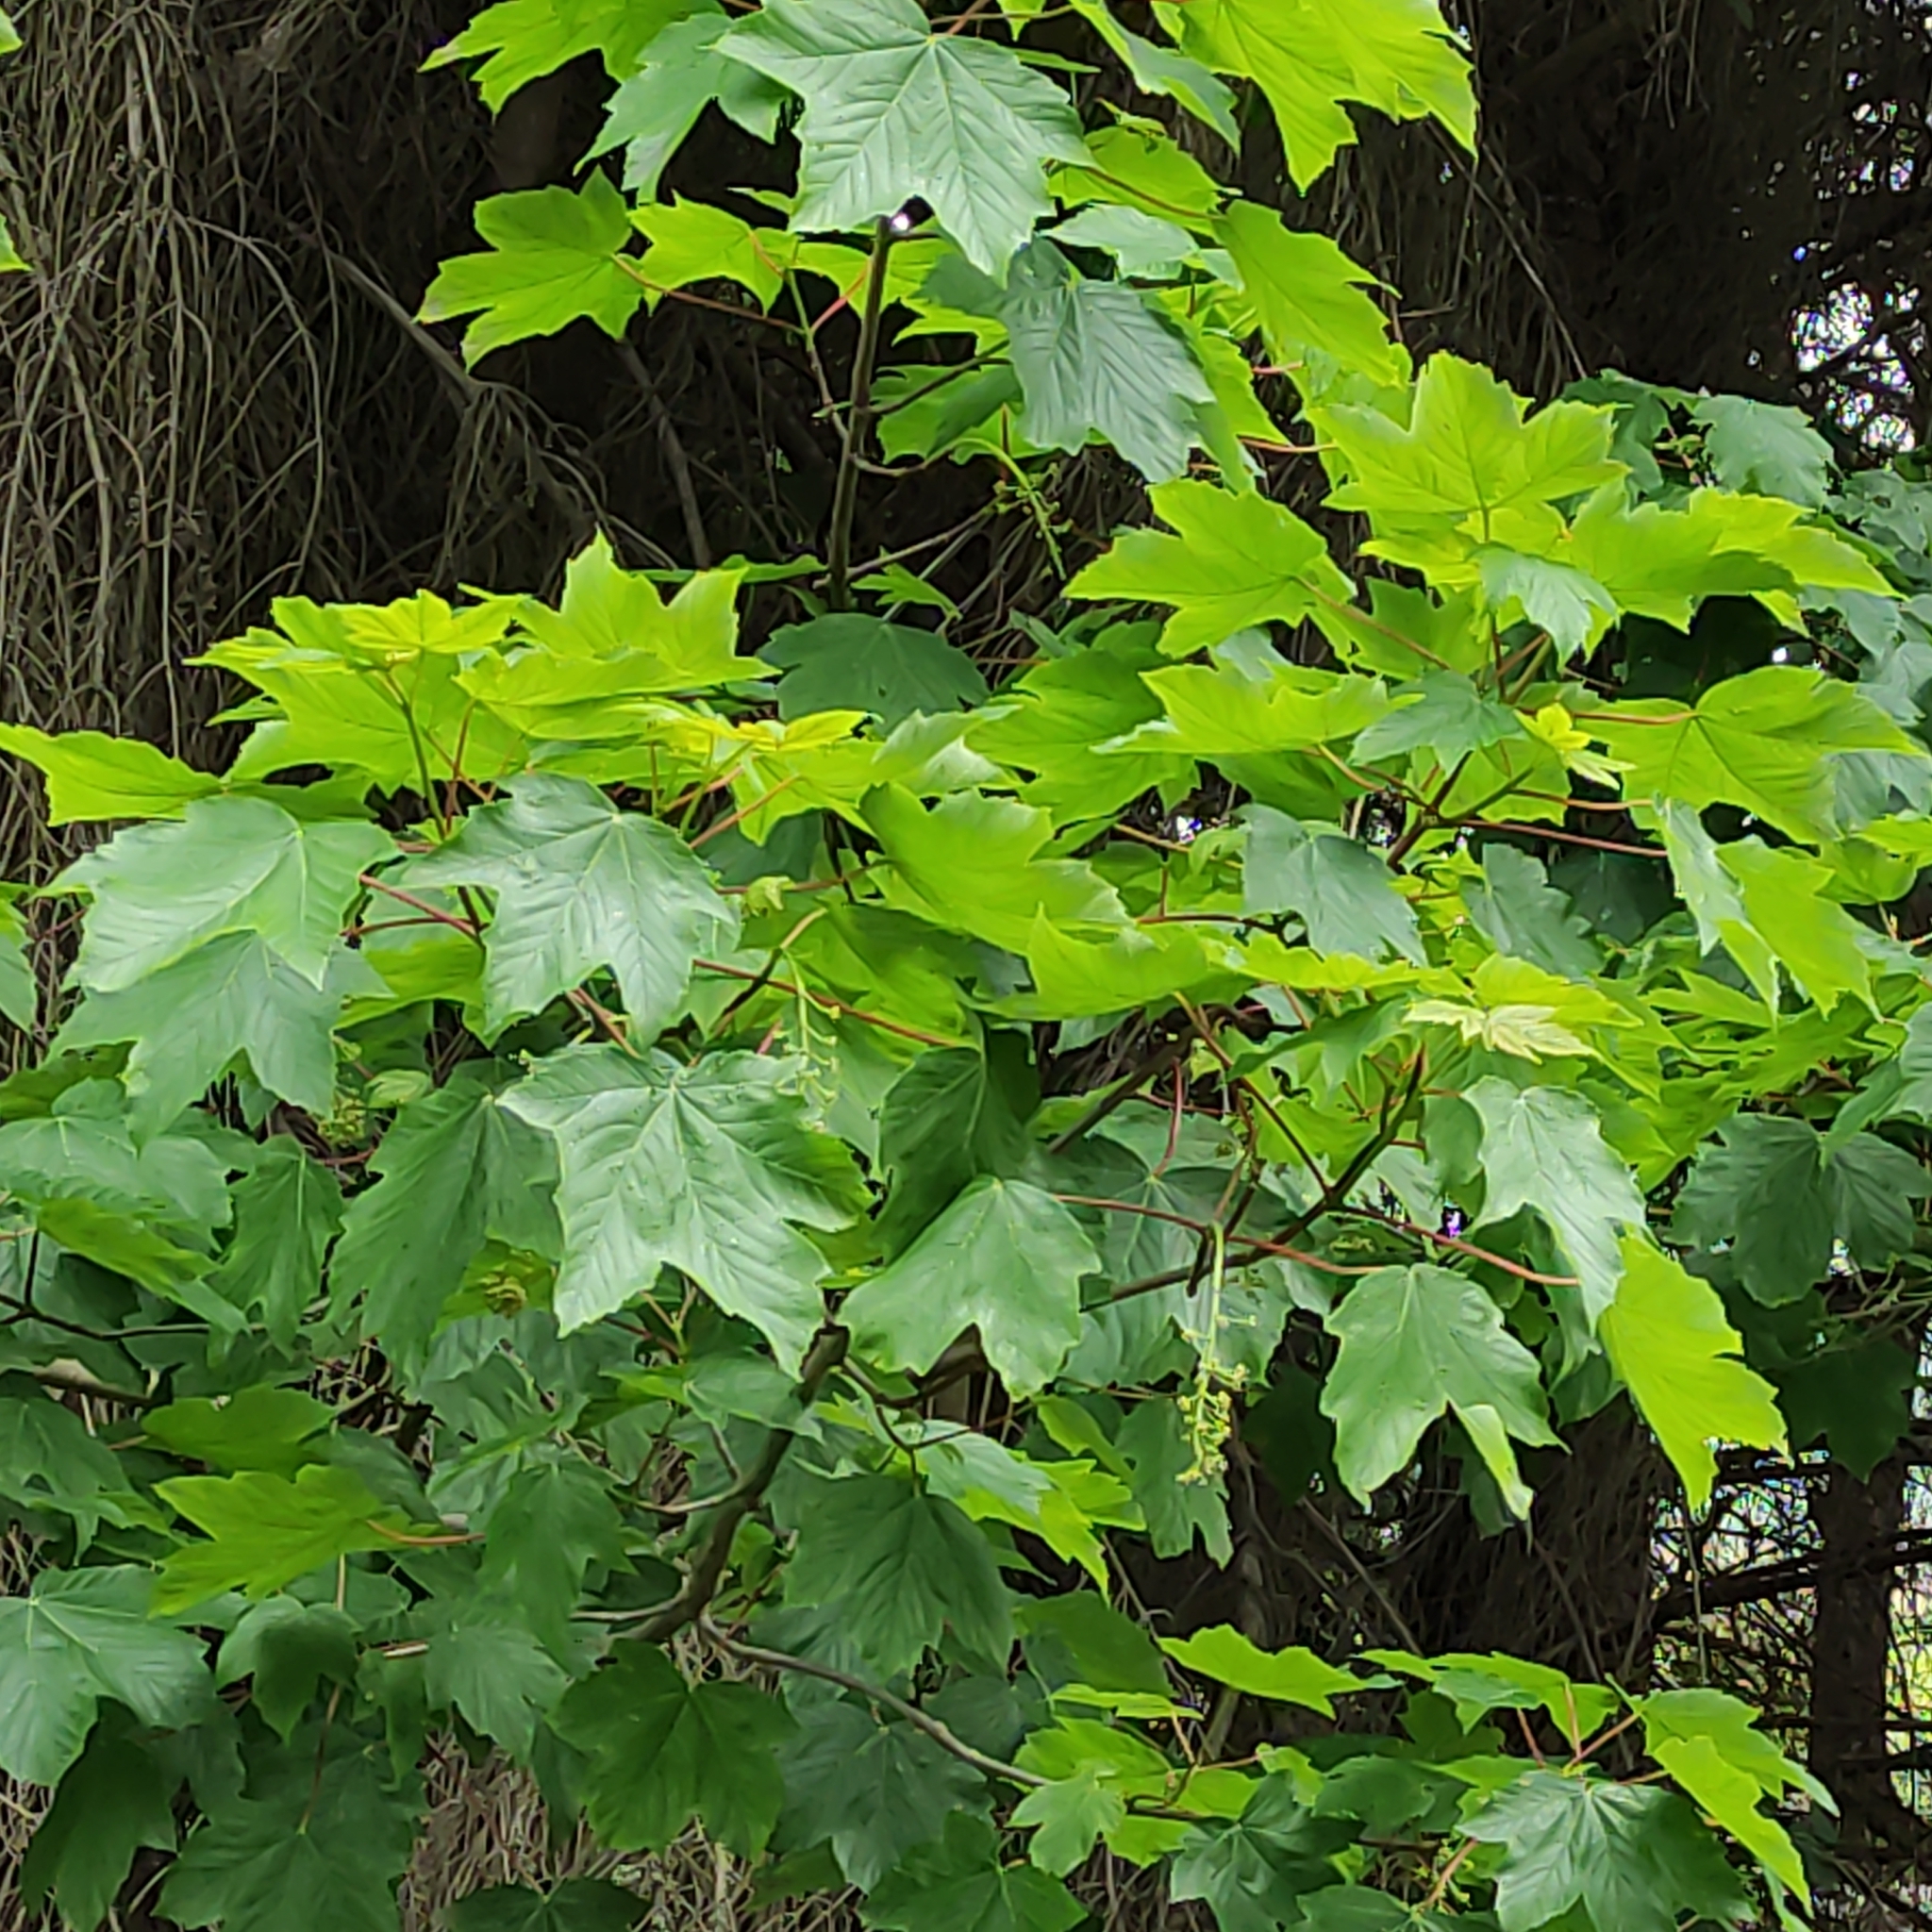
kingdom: Plantae
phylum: Tracheophyta
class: Magnoliopsida
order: Sapindales
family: Sapindaceae
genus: Acer
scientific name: Acer pseudoplatanus
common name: Sycamore
